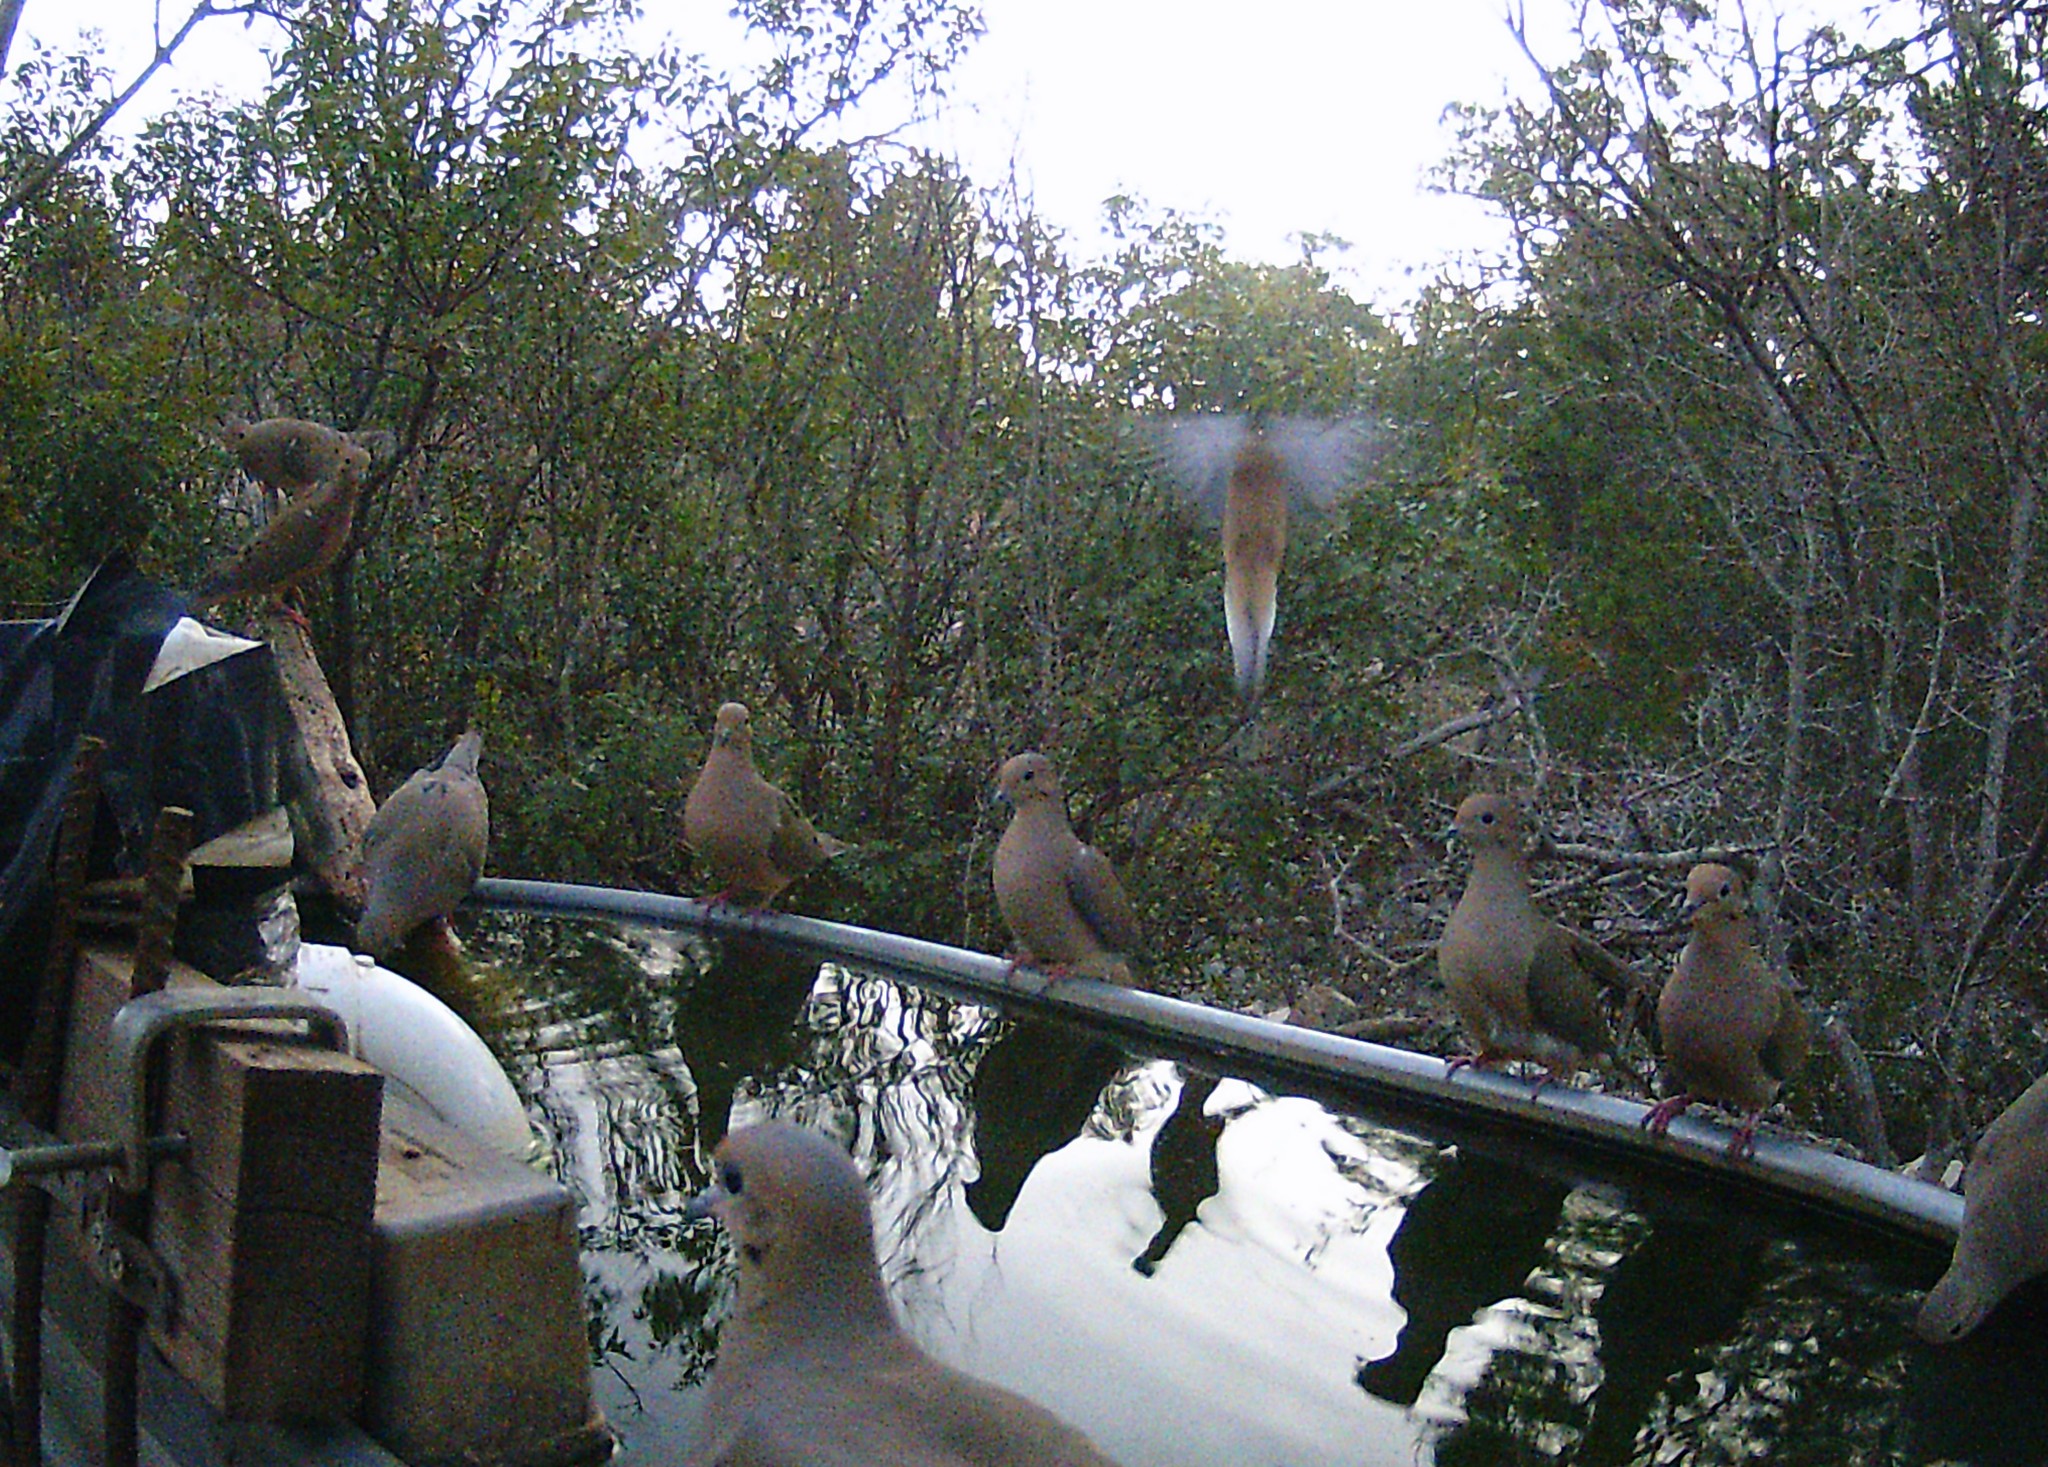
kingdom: Animalia
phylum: Chordata
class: Aves
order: Columbiformes
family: Columbidae
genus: Zenaida
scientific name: Zenaida macroura
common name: Mourning dove
